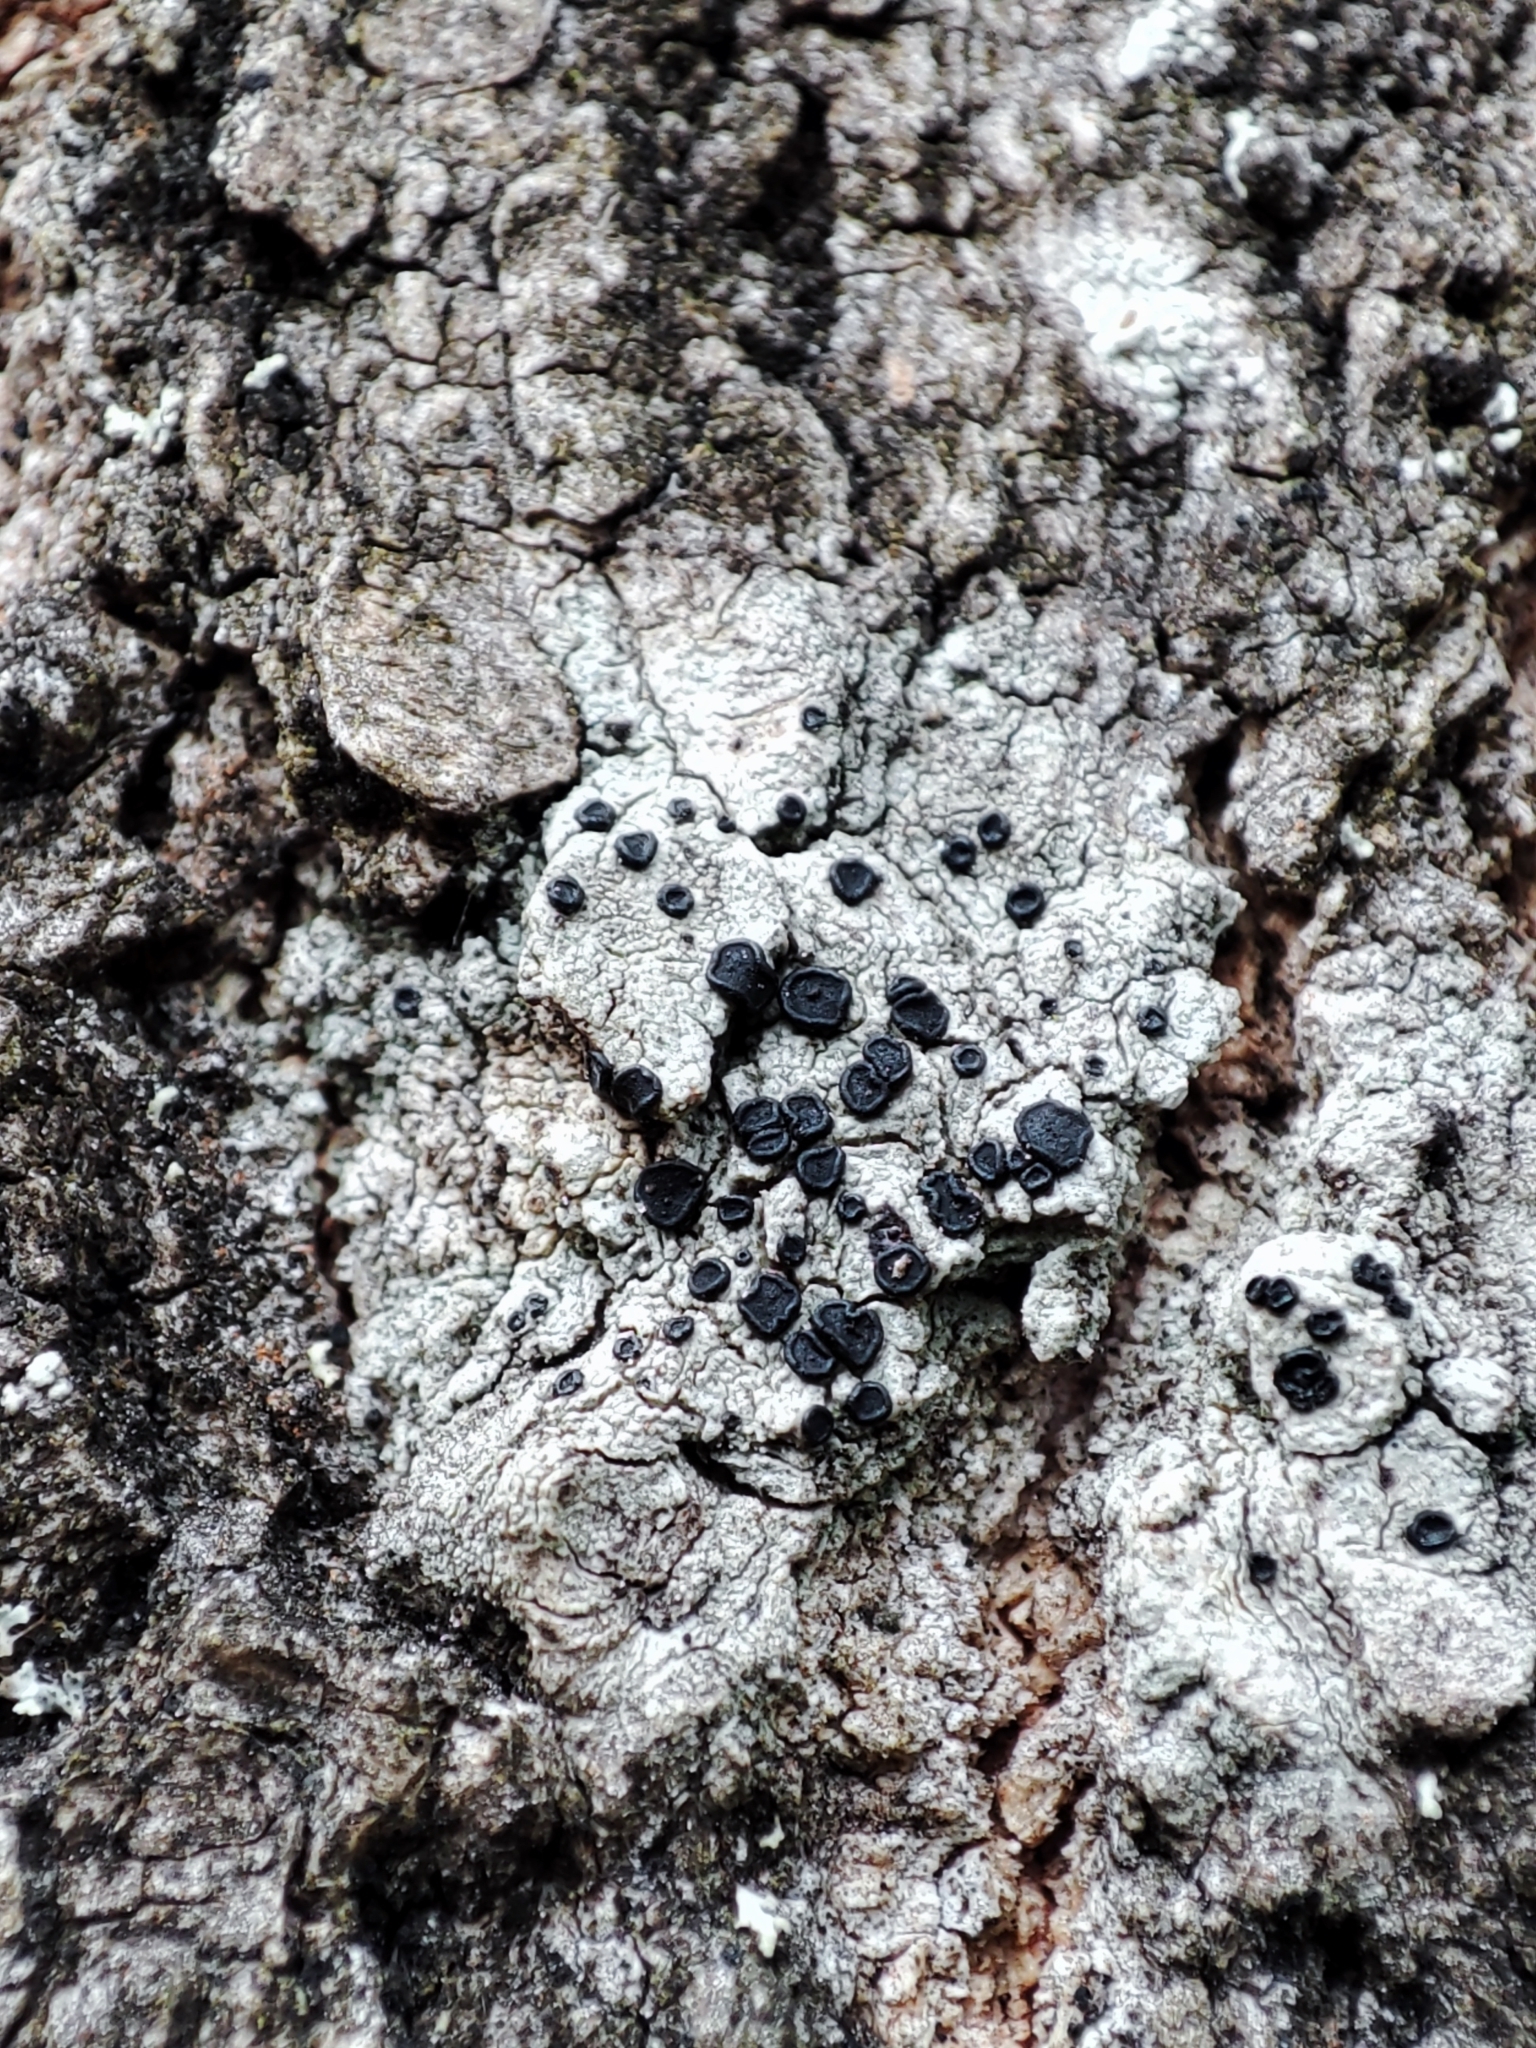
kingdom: Fungi
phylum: Ascomycota
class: Lecanoromycetes
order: Lecanorales
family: Lecanoraceae
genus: Lecidella
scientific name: Lecidella elaeochroma
